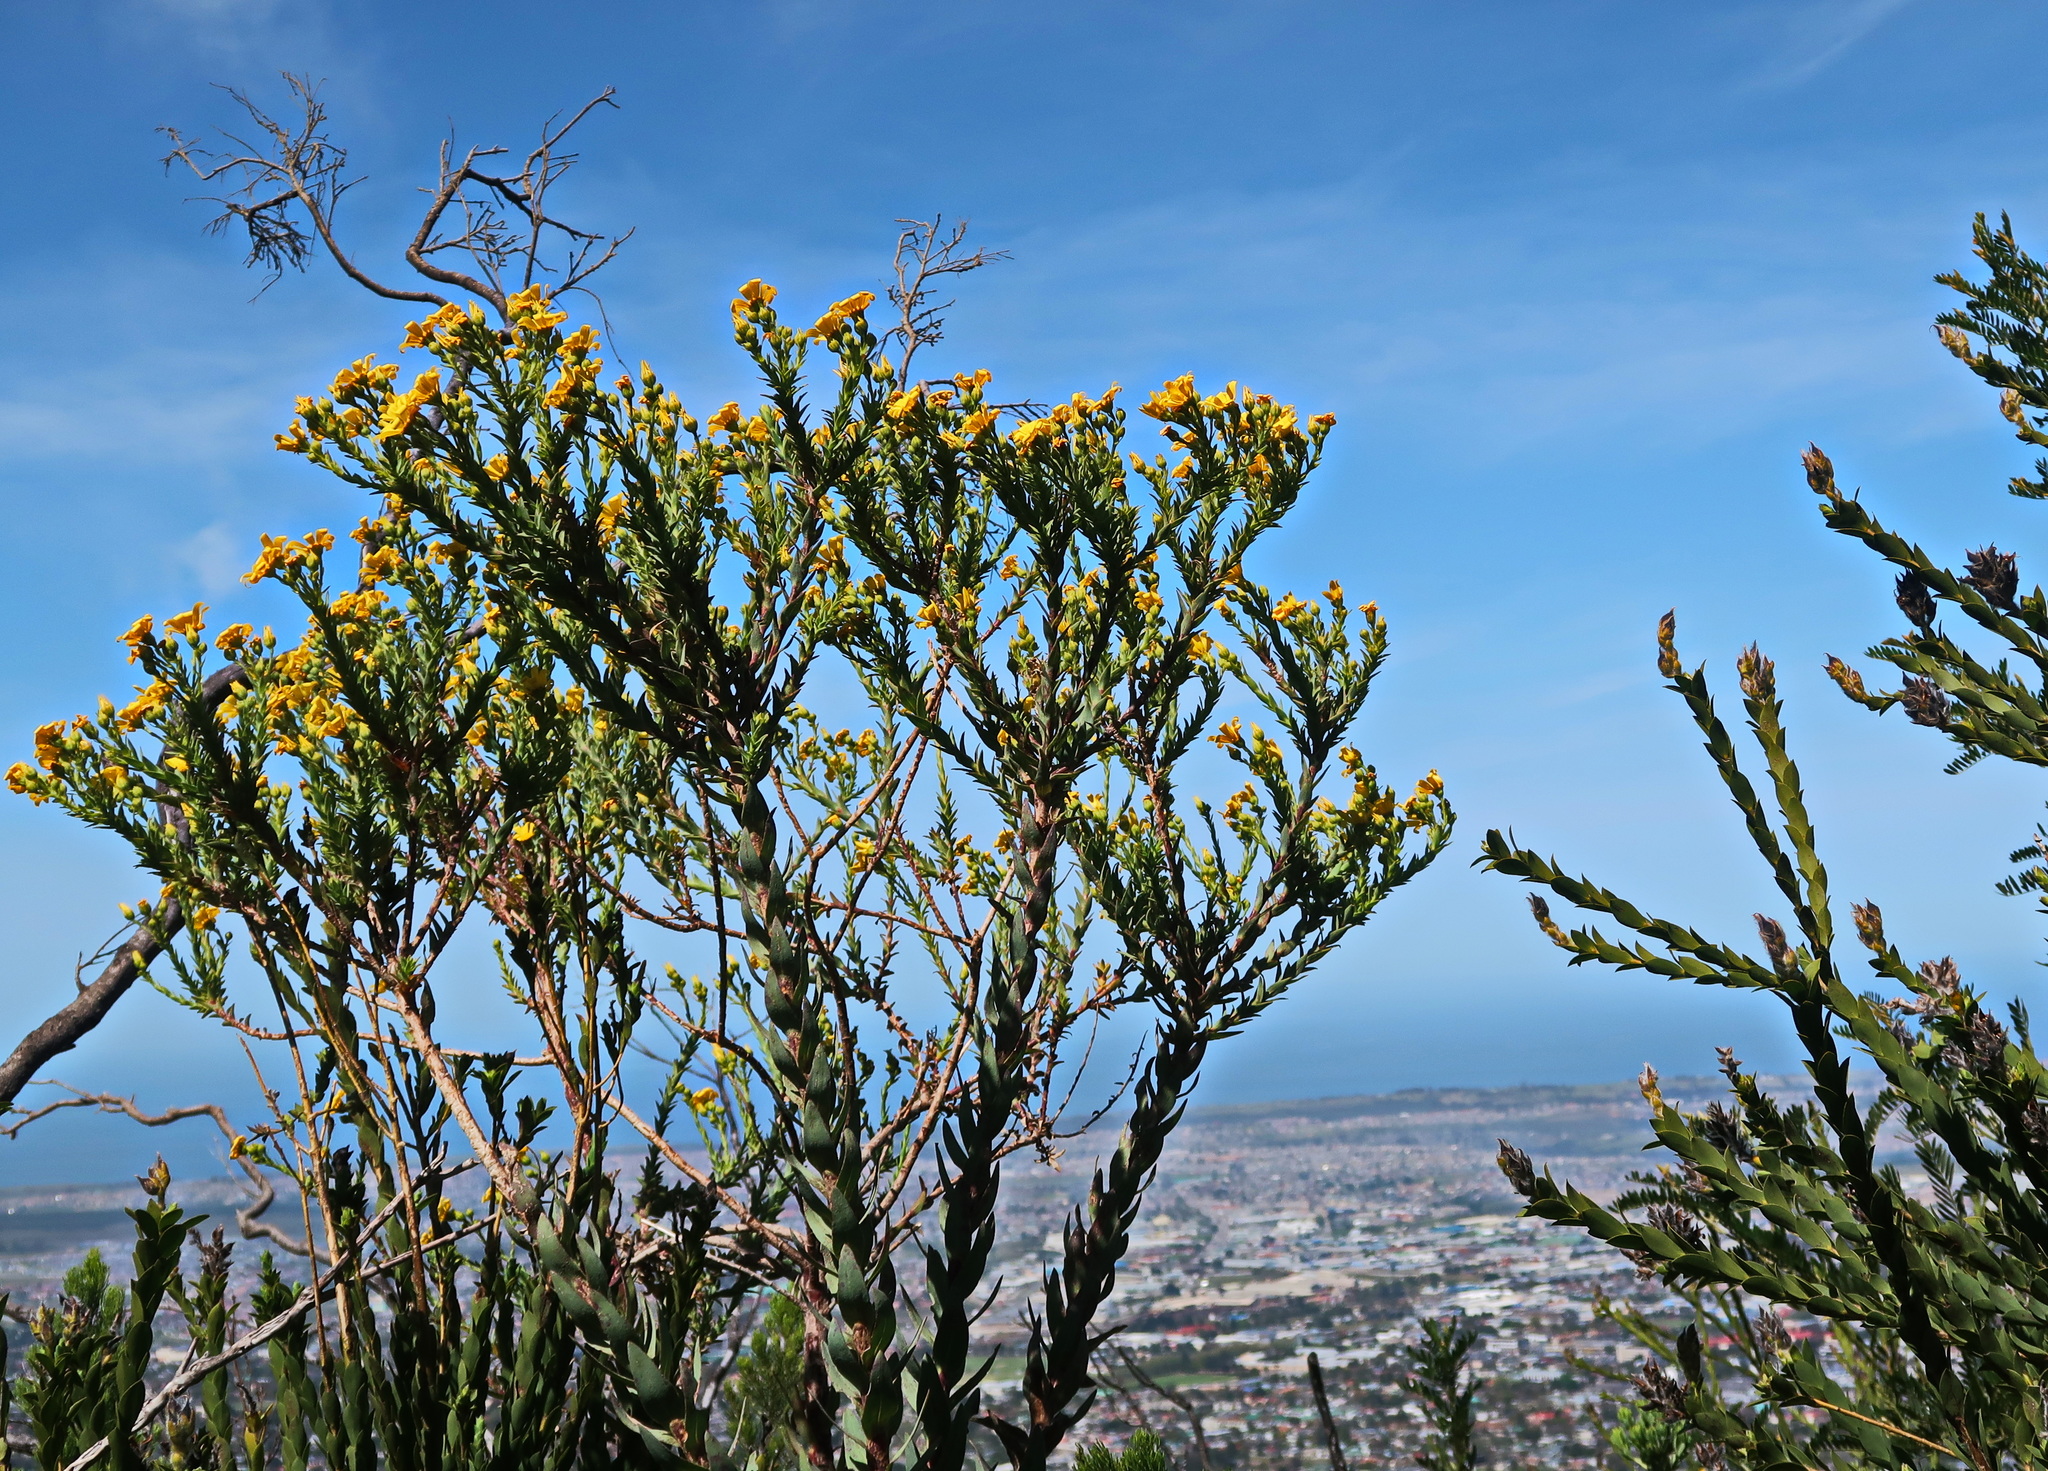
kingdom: Plantae
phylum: Tracheophyta
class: Magnoliopsida
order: Asterales
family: Asteraceae
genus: Osteospermum
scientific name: Osteospermum corymbosum
